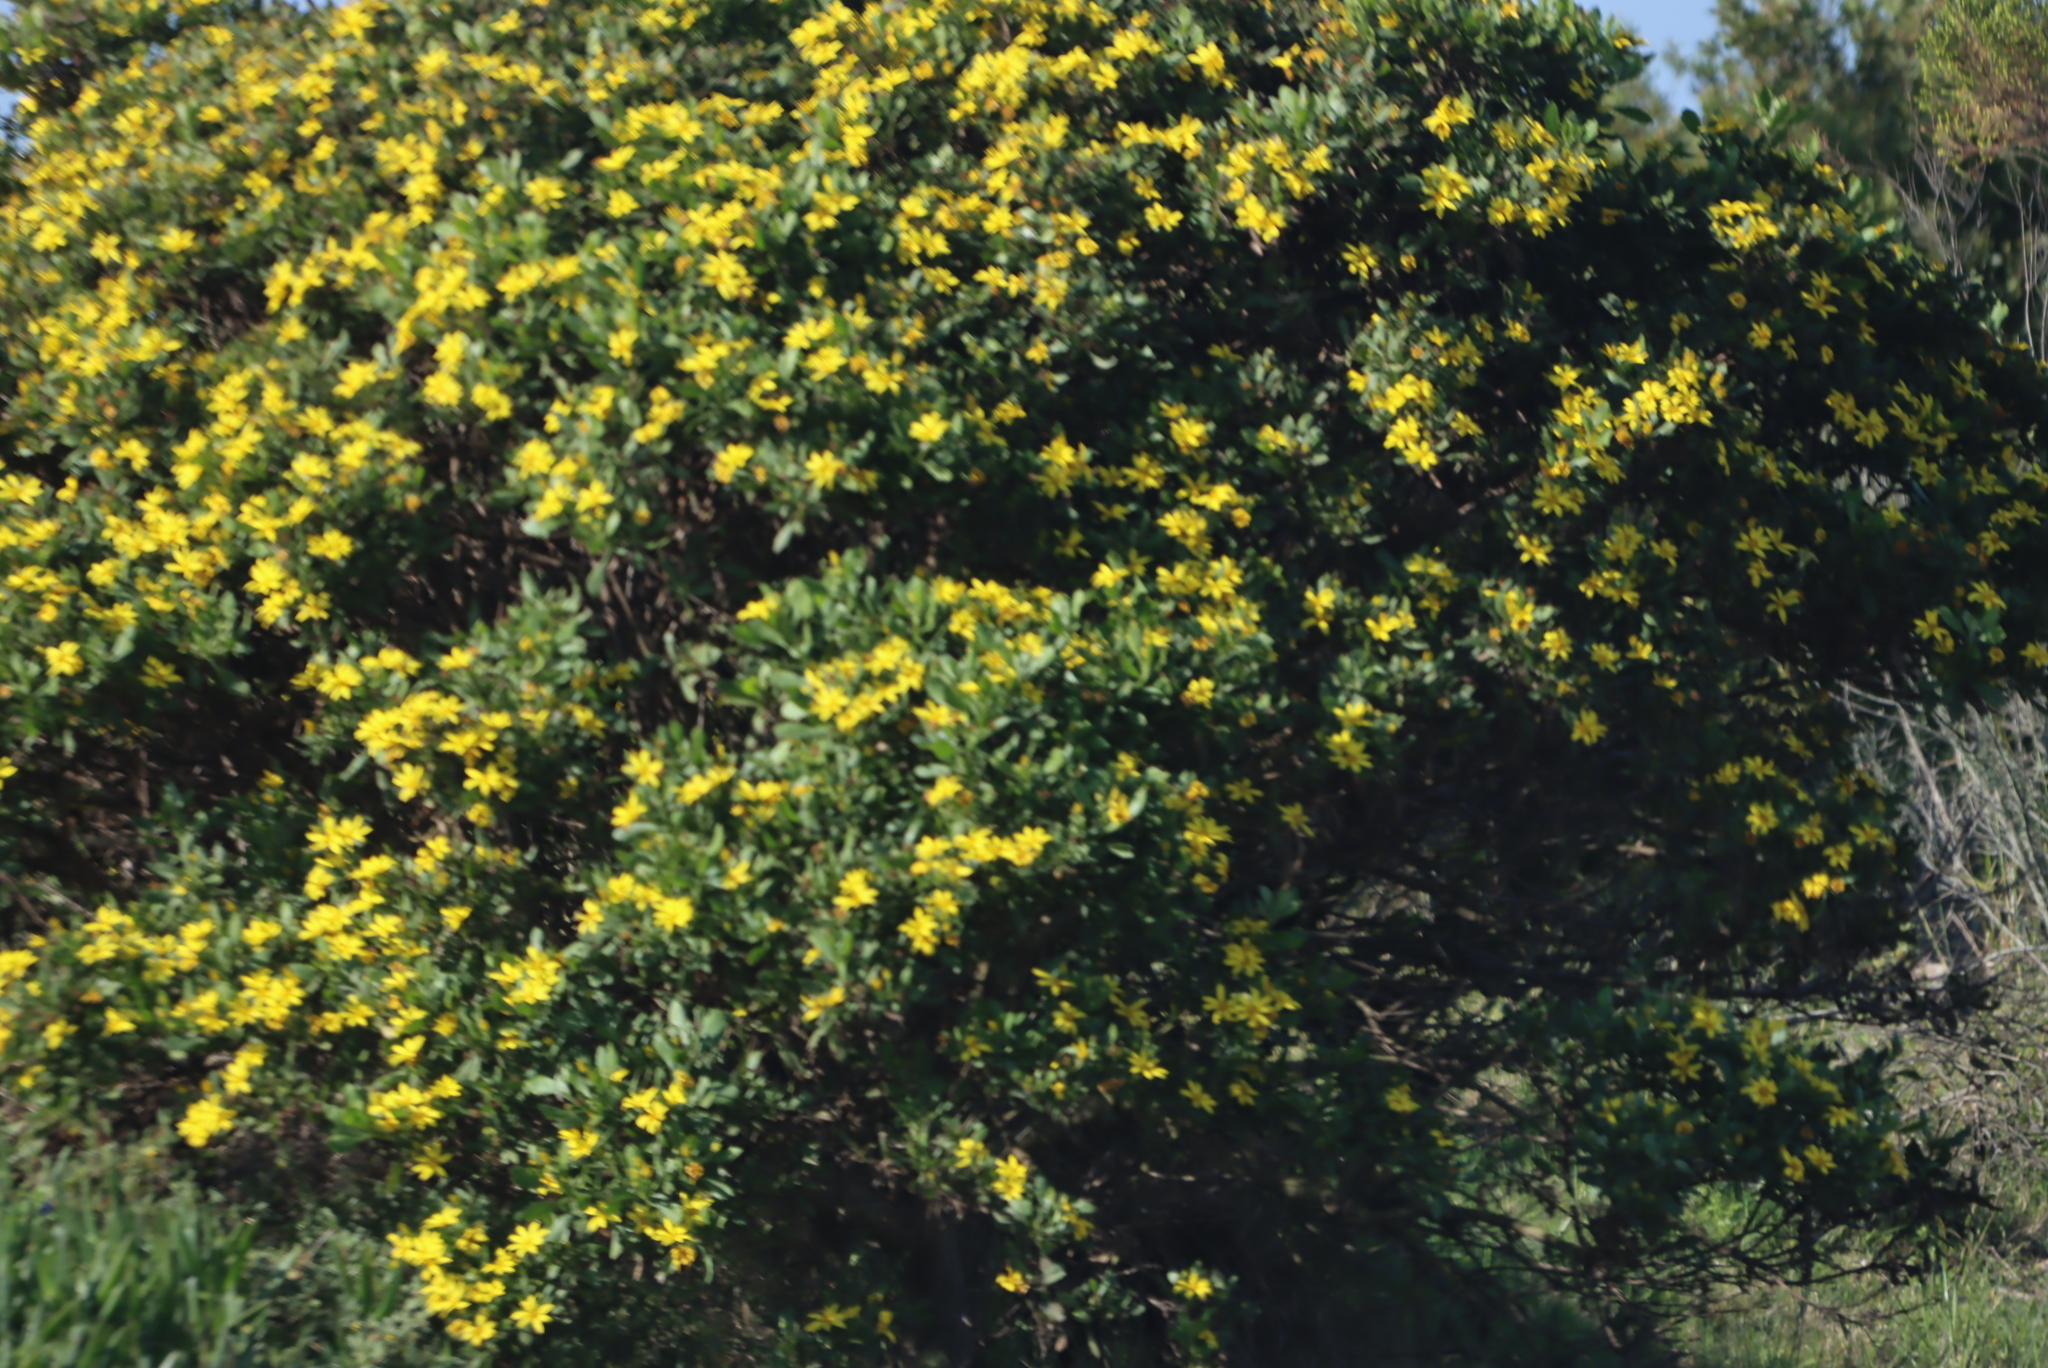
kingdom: Plantae
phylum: Tracheophyta
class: Magnoliopsida
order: Asterales
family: Asteraceae
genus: Osteospermum
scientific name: Osteospermum moniliferum
